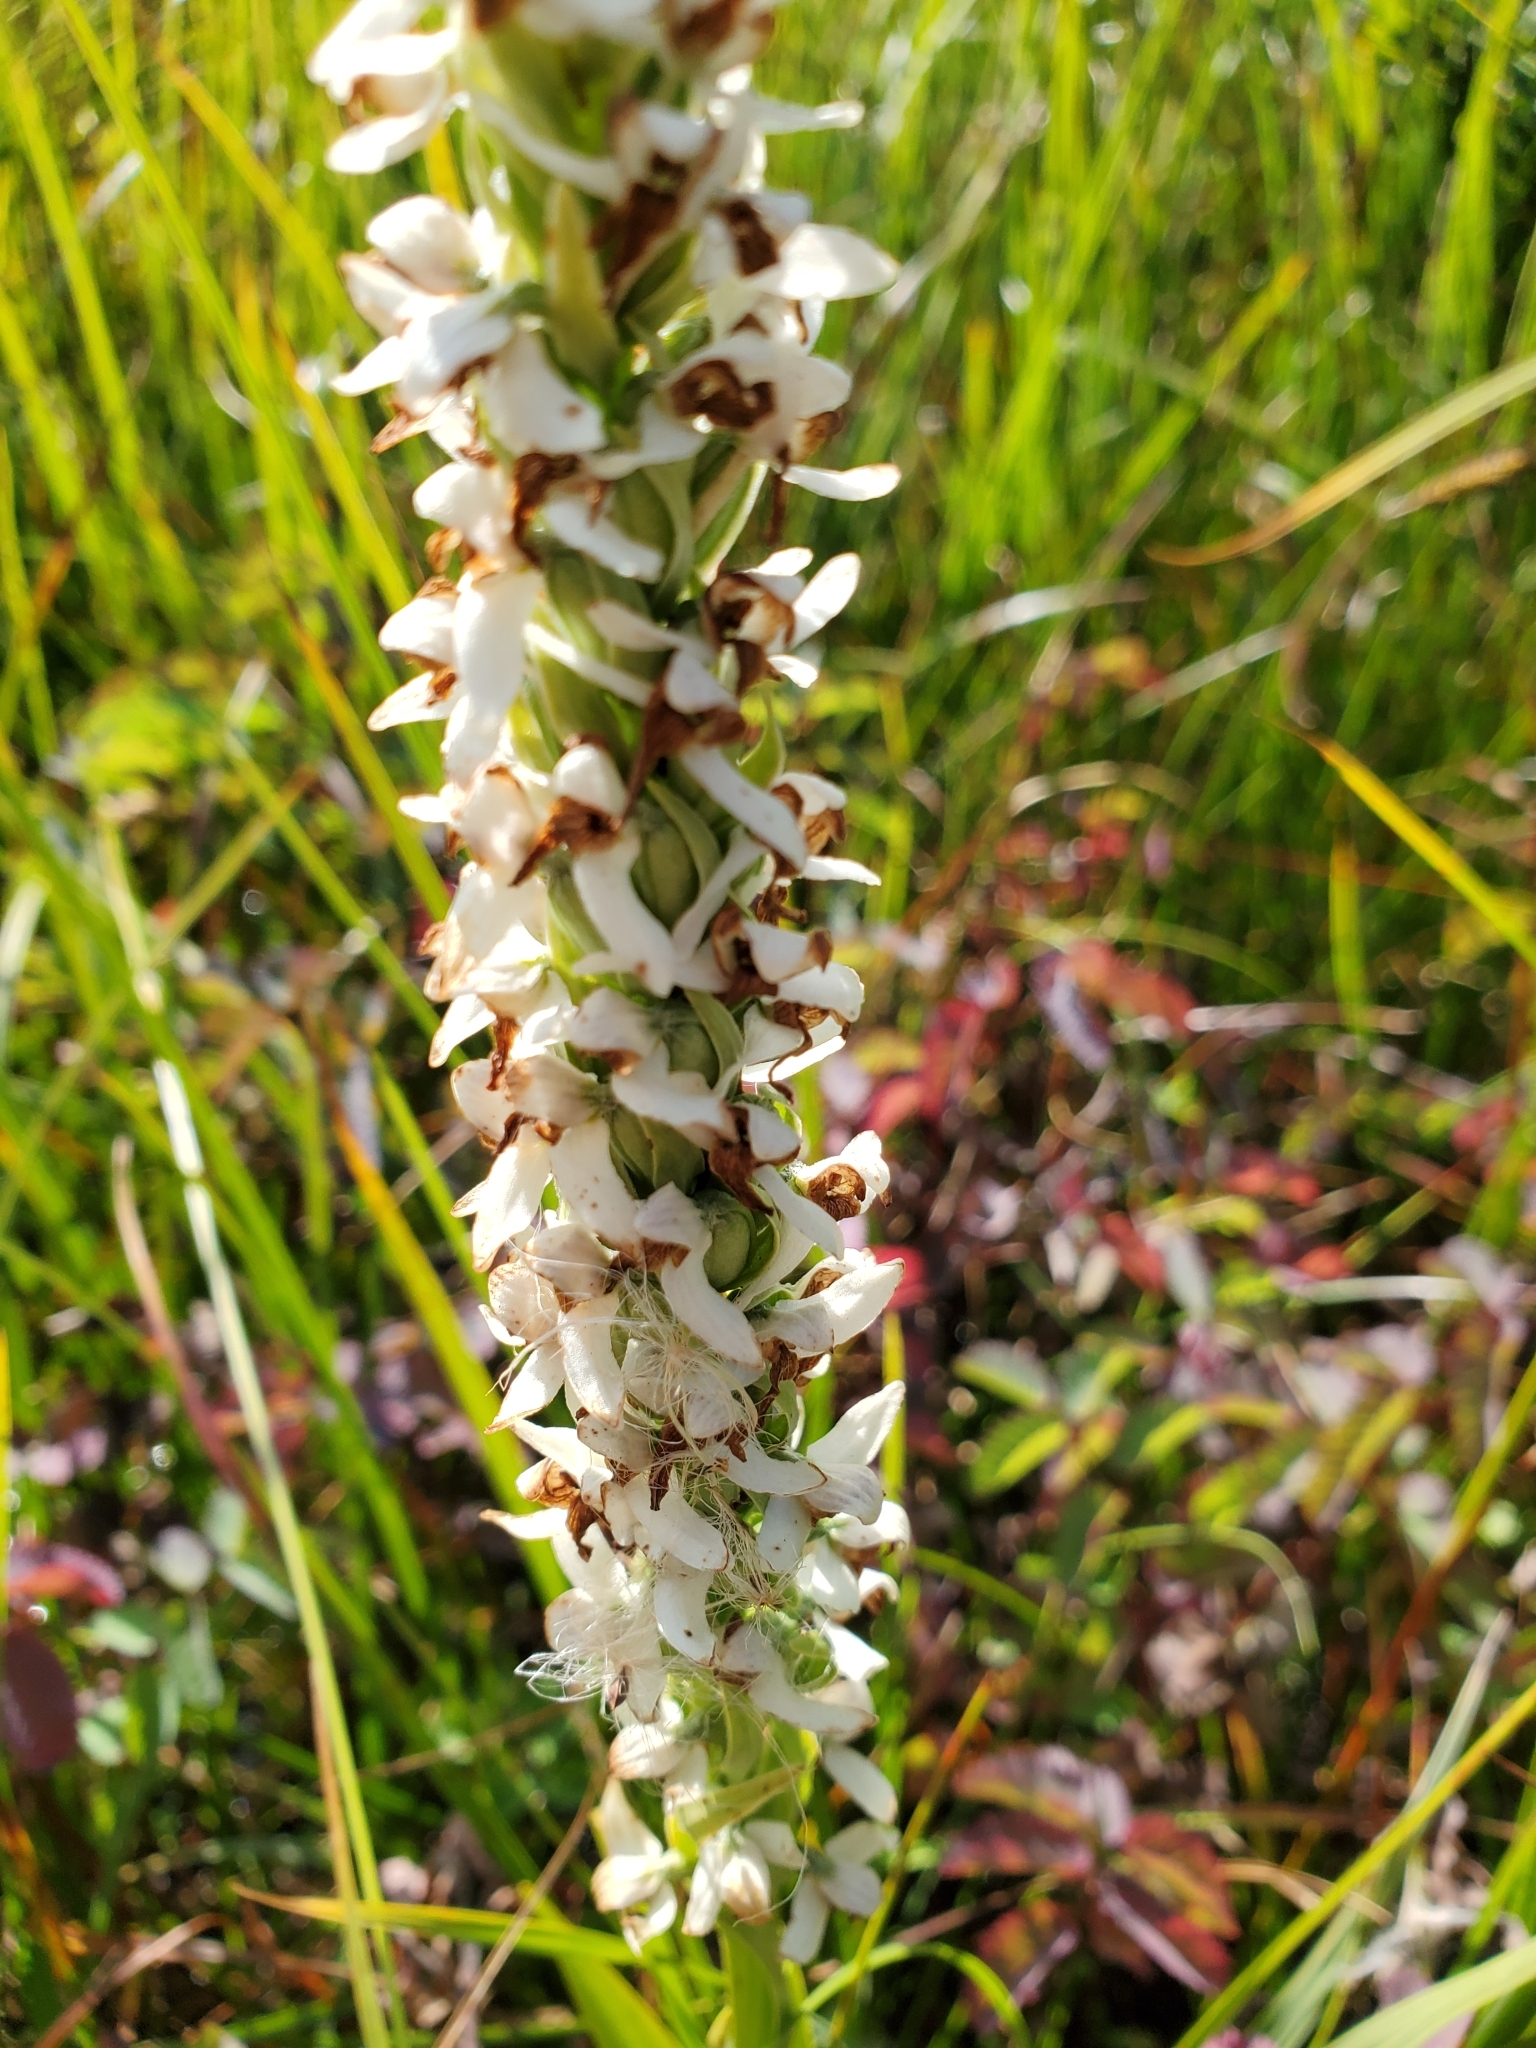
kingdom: Plantae
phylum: Tracheophyta
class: Liliopsida
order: Asparagales
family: Orchidaceae
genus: Platanthera
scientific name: Platanthera dilatata
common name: Bog candles
